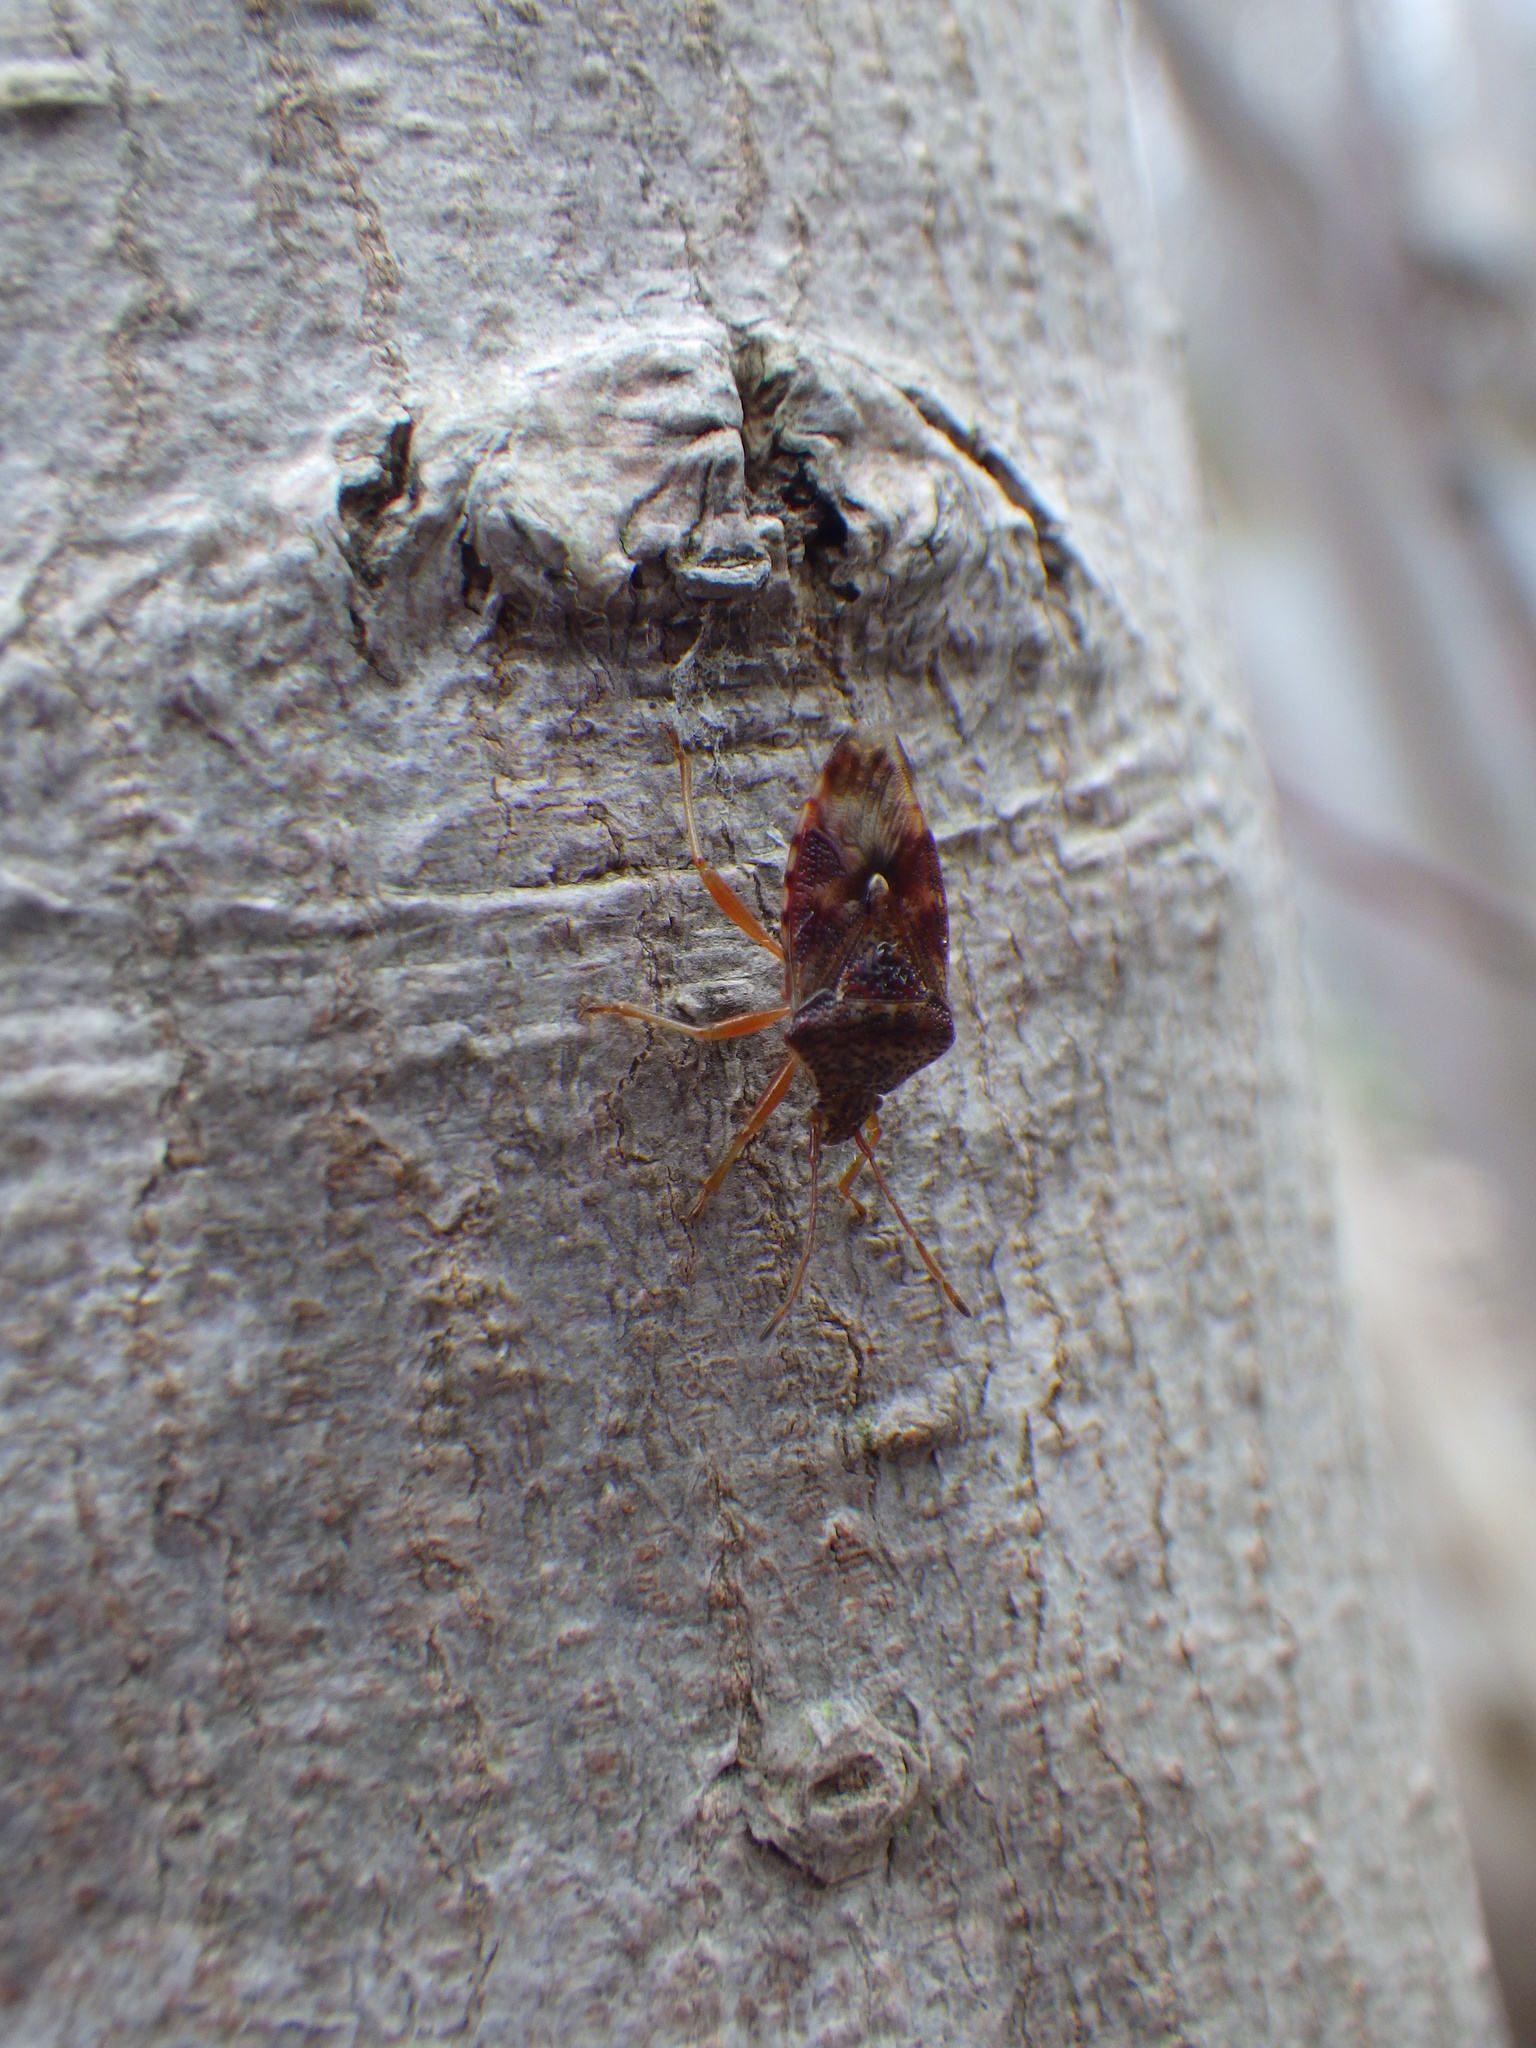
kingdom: Animalia
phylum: Arthropoda
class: Insecta
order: Hemiptera
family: Acanthosomatidae
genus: Elasmucha
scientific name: Elasmucha lateralis
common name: Shield bug
